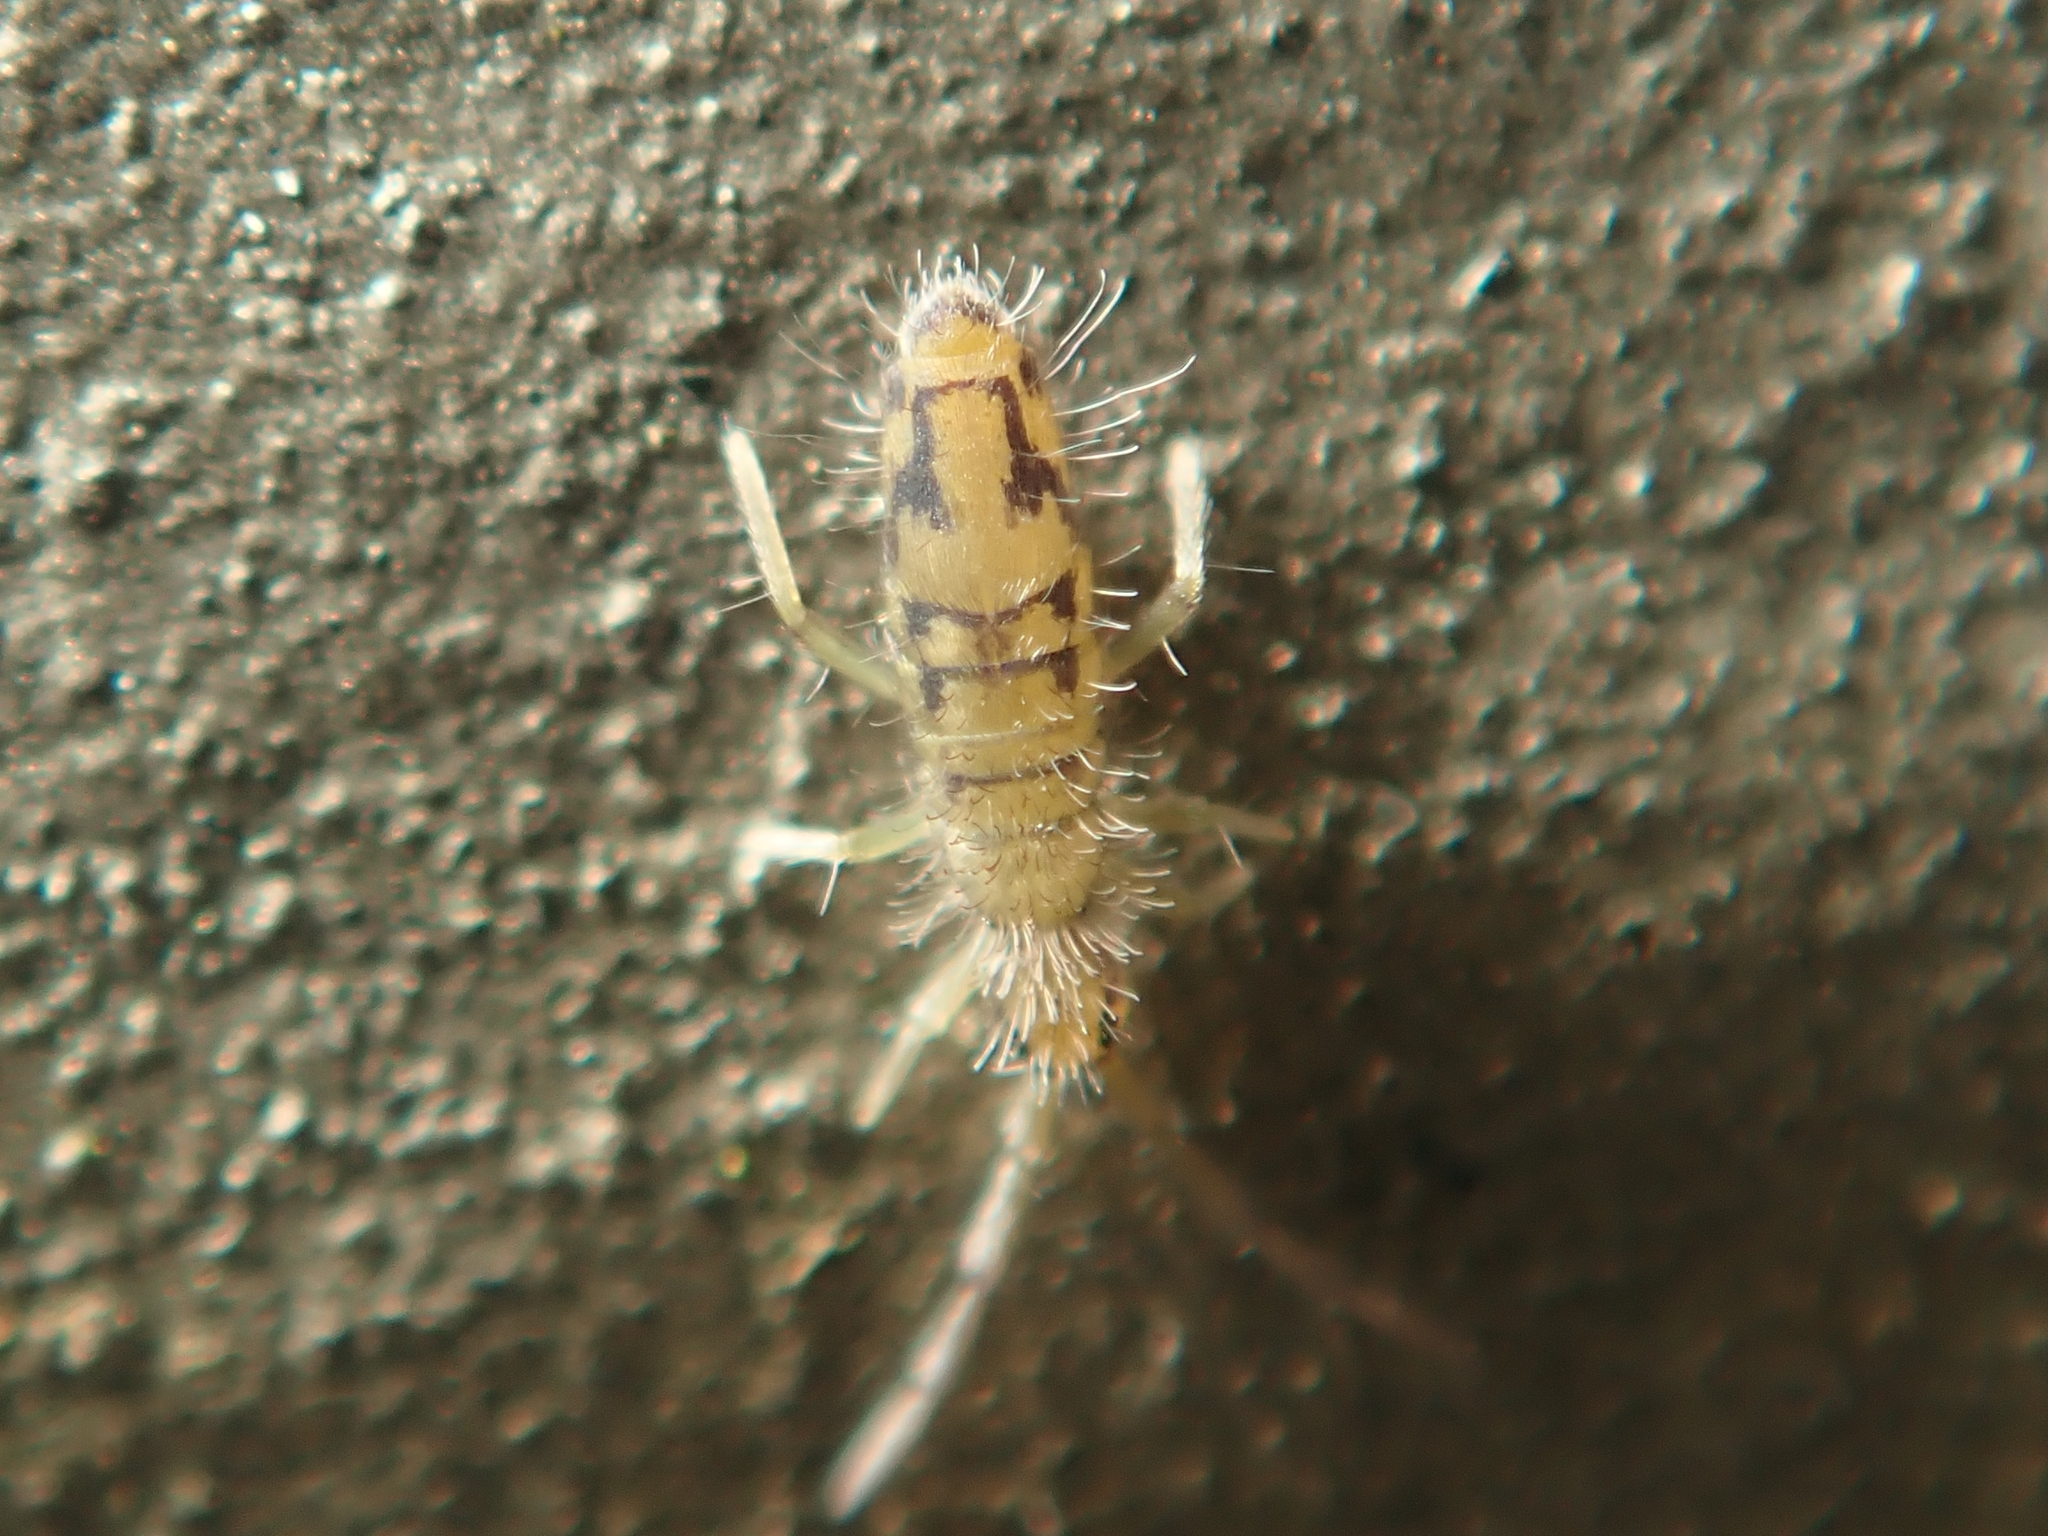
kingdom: Animalia
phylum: Arthropoda
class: Collembola
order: Entomobryomorpha
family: Entomobryidae
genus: Entomobrya
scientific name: Entomobrya nivalis
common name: Cosmopolitan springtail
